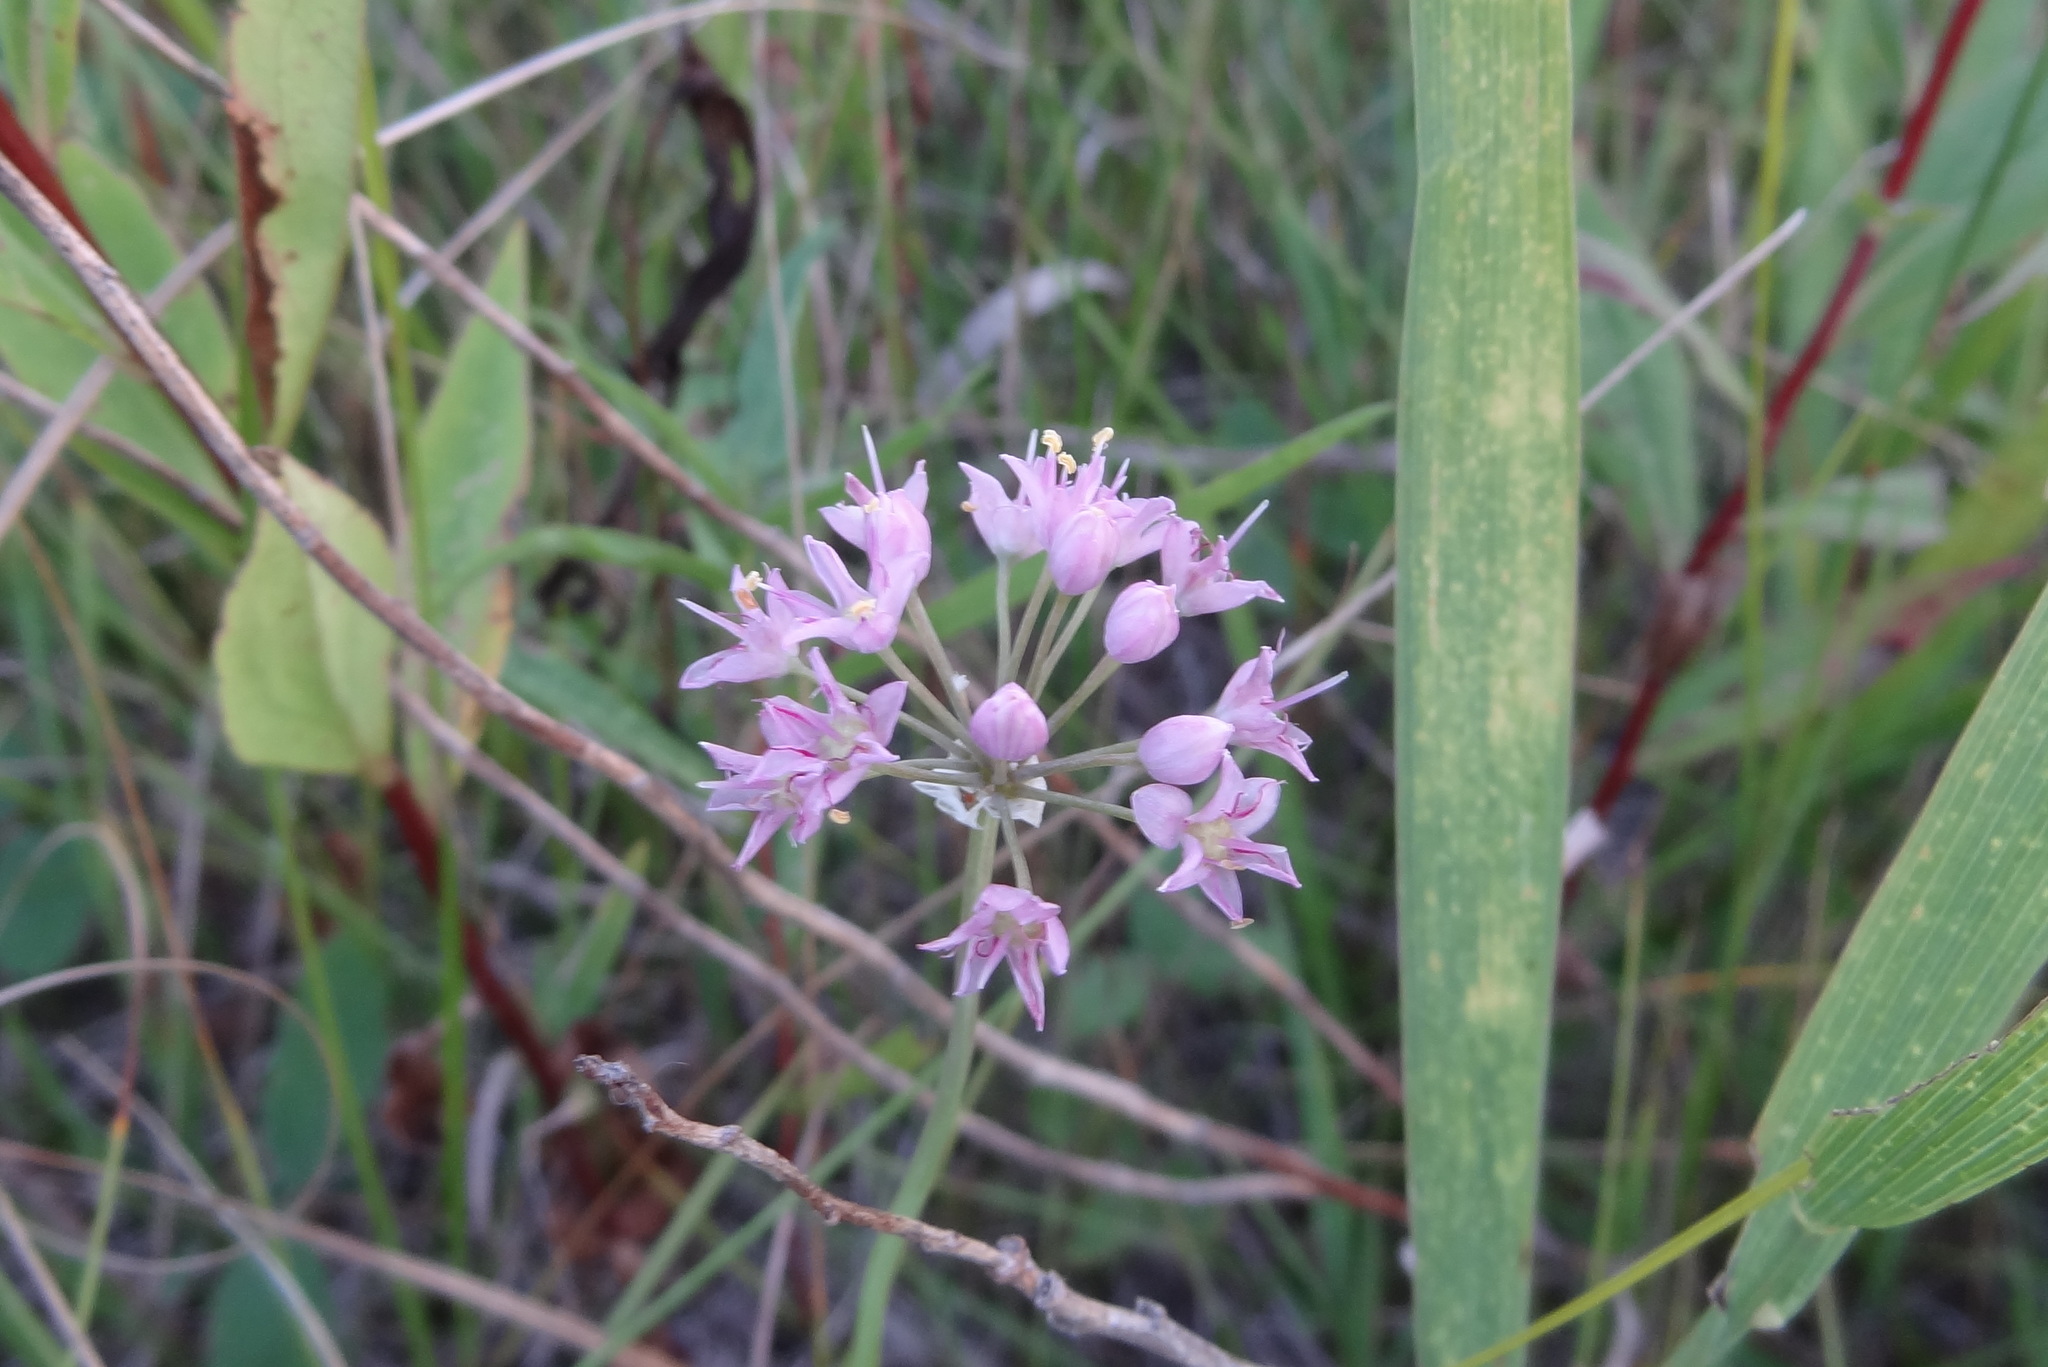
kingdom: Plantae
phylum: Tracheophyta
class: Liliopsida
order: Asparagales
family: Amaryllidaceae
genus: Allium
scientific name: Allium stellatum
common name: Autumn onion
